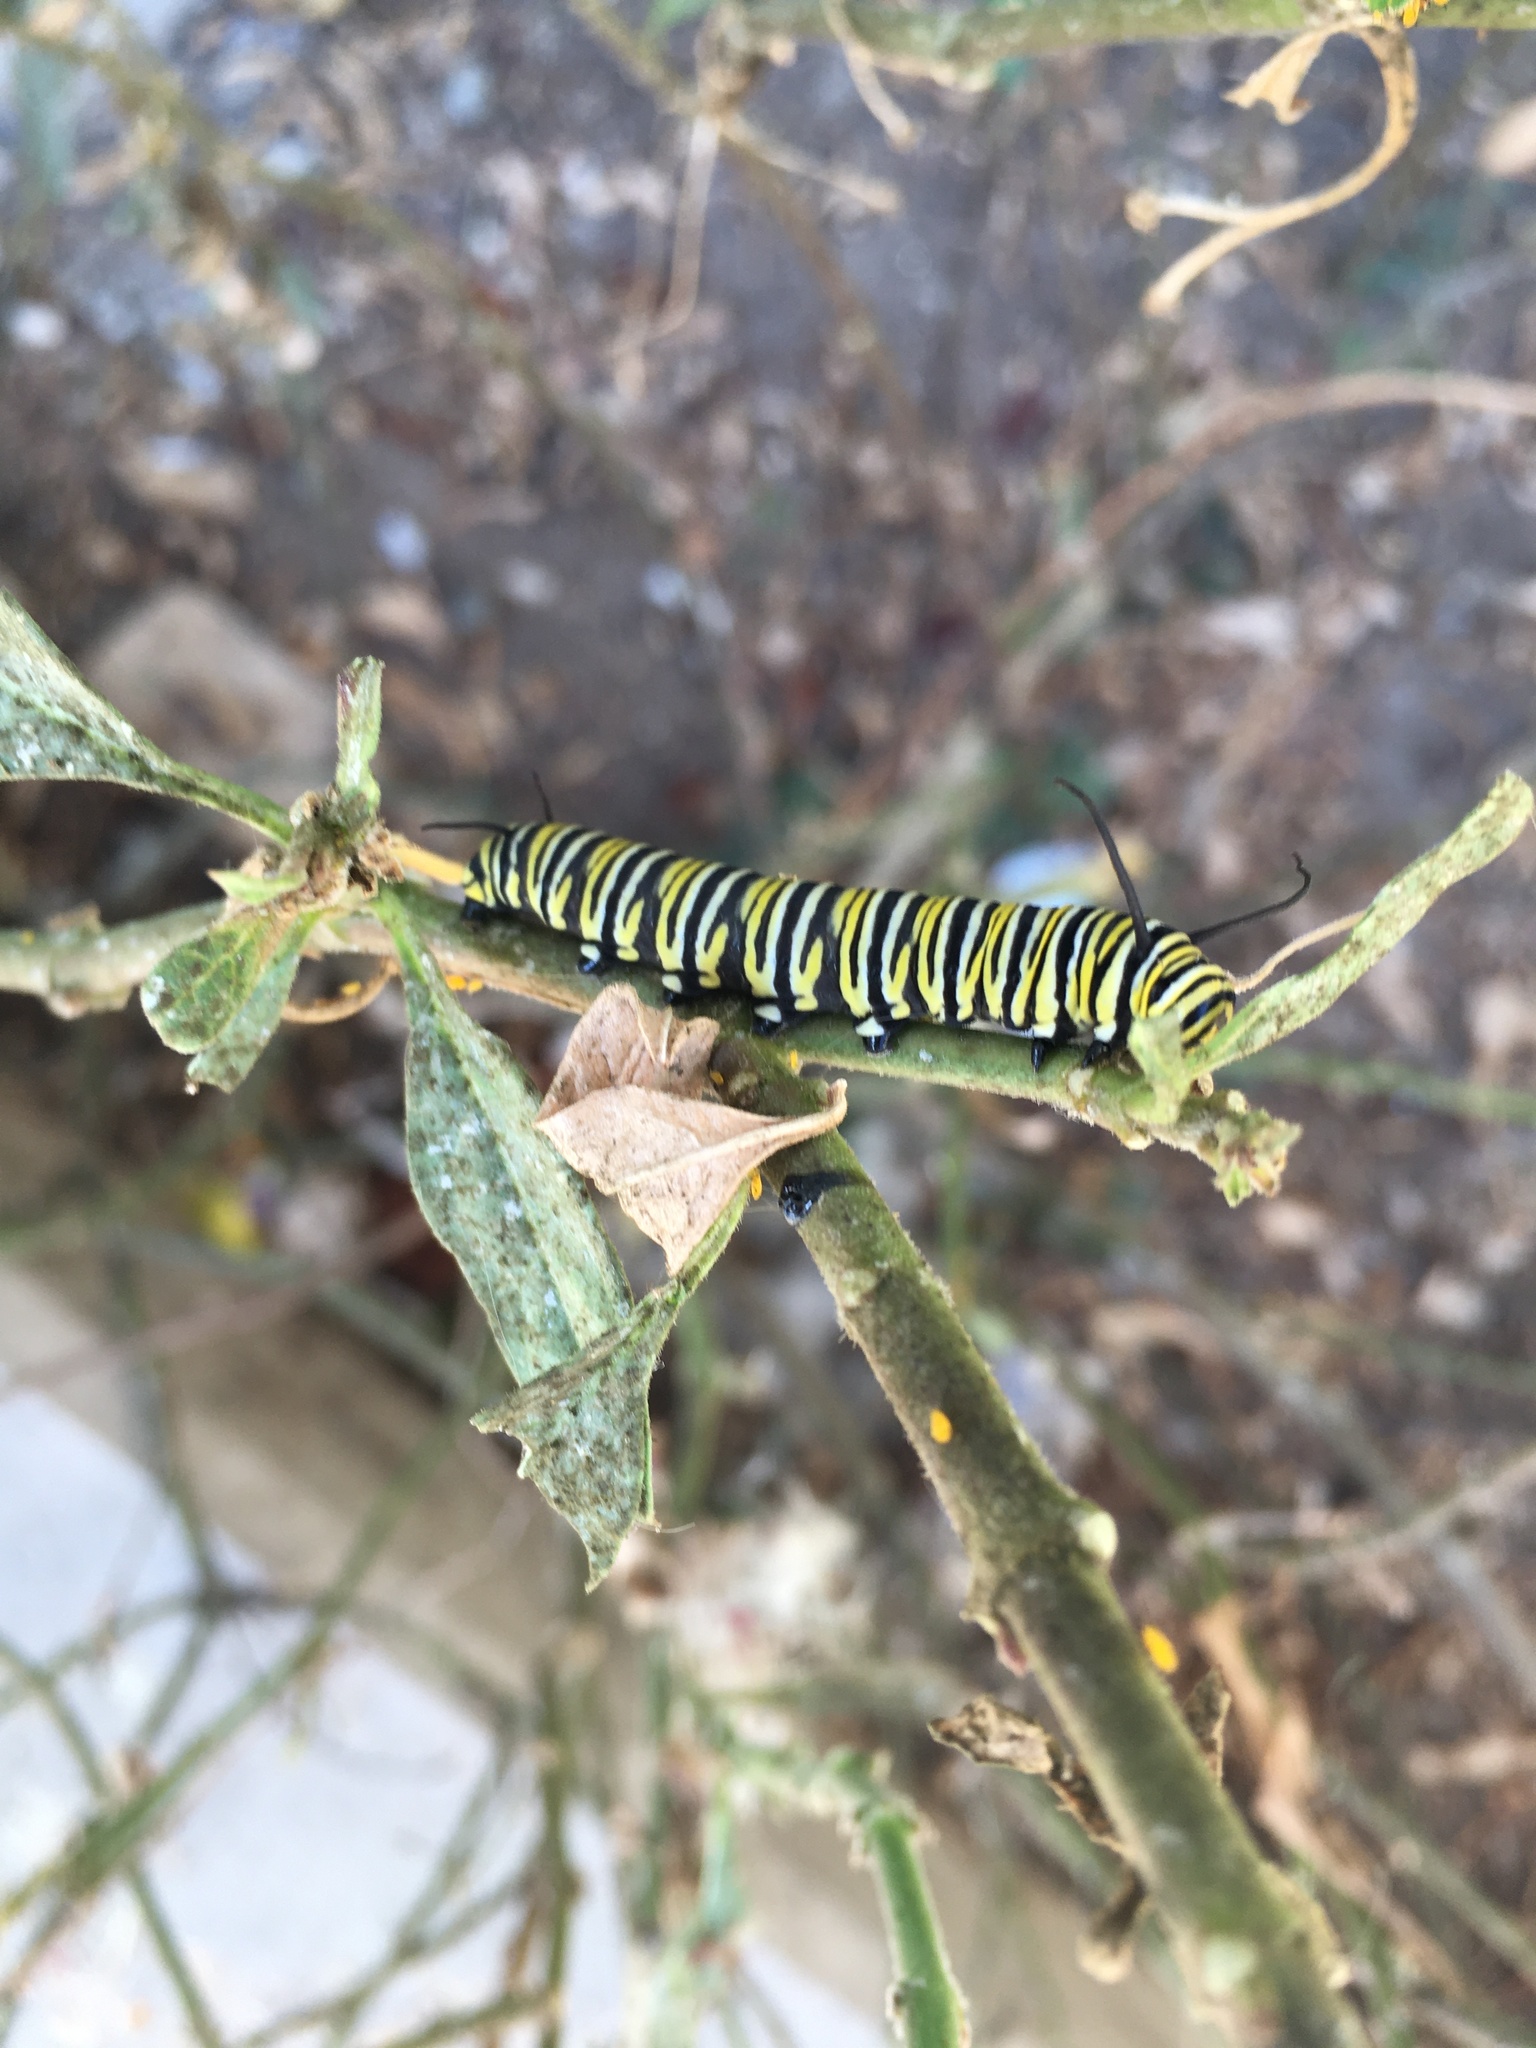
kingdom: Animalia
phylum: Arthropoda
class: Insecta
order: Lepidoptera
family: Nymphalidae
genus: Danaus
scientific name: Danaus plexippus
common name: Monarch
